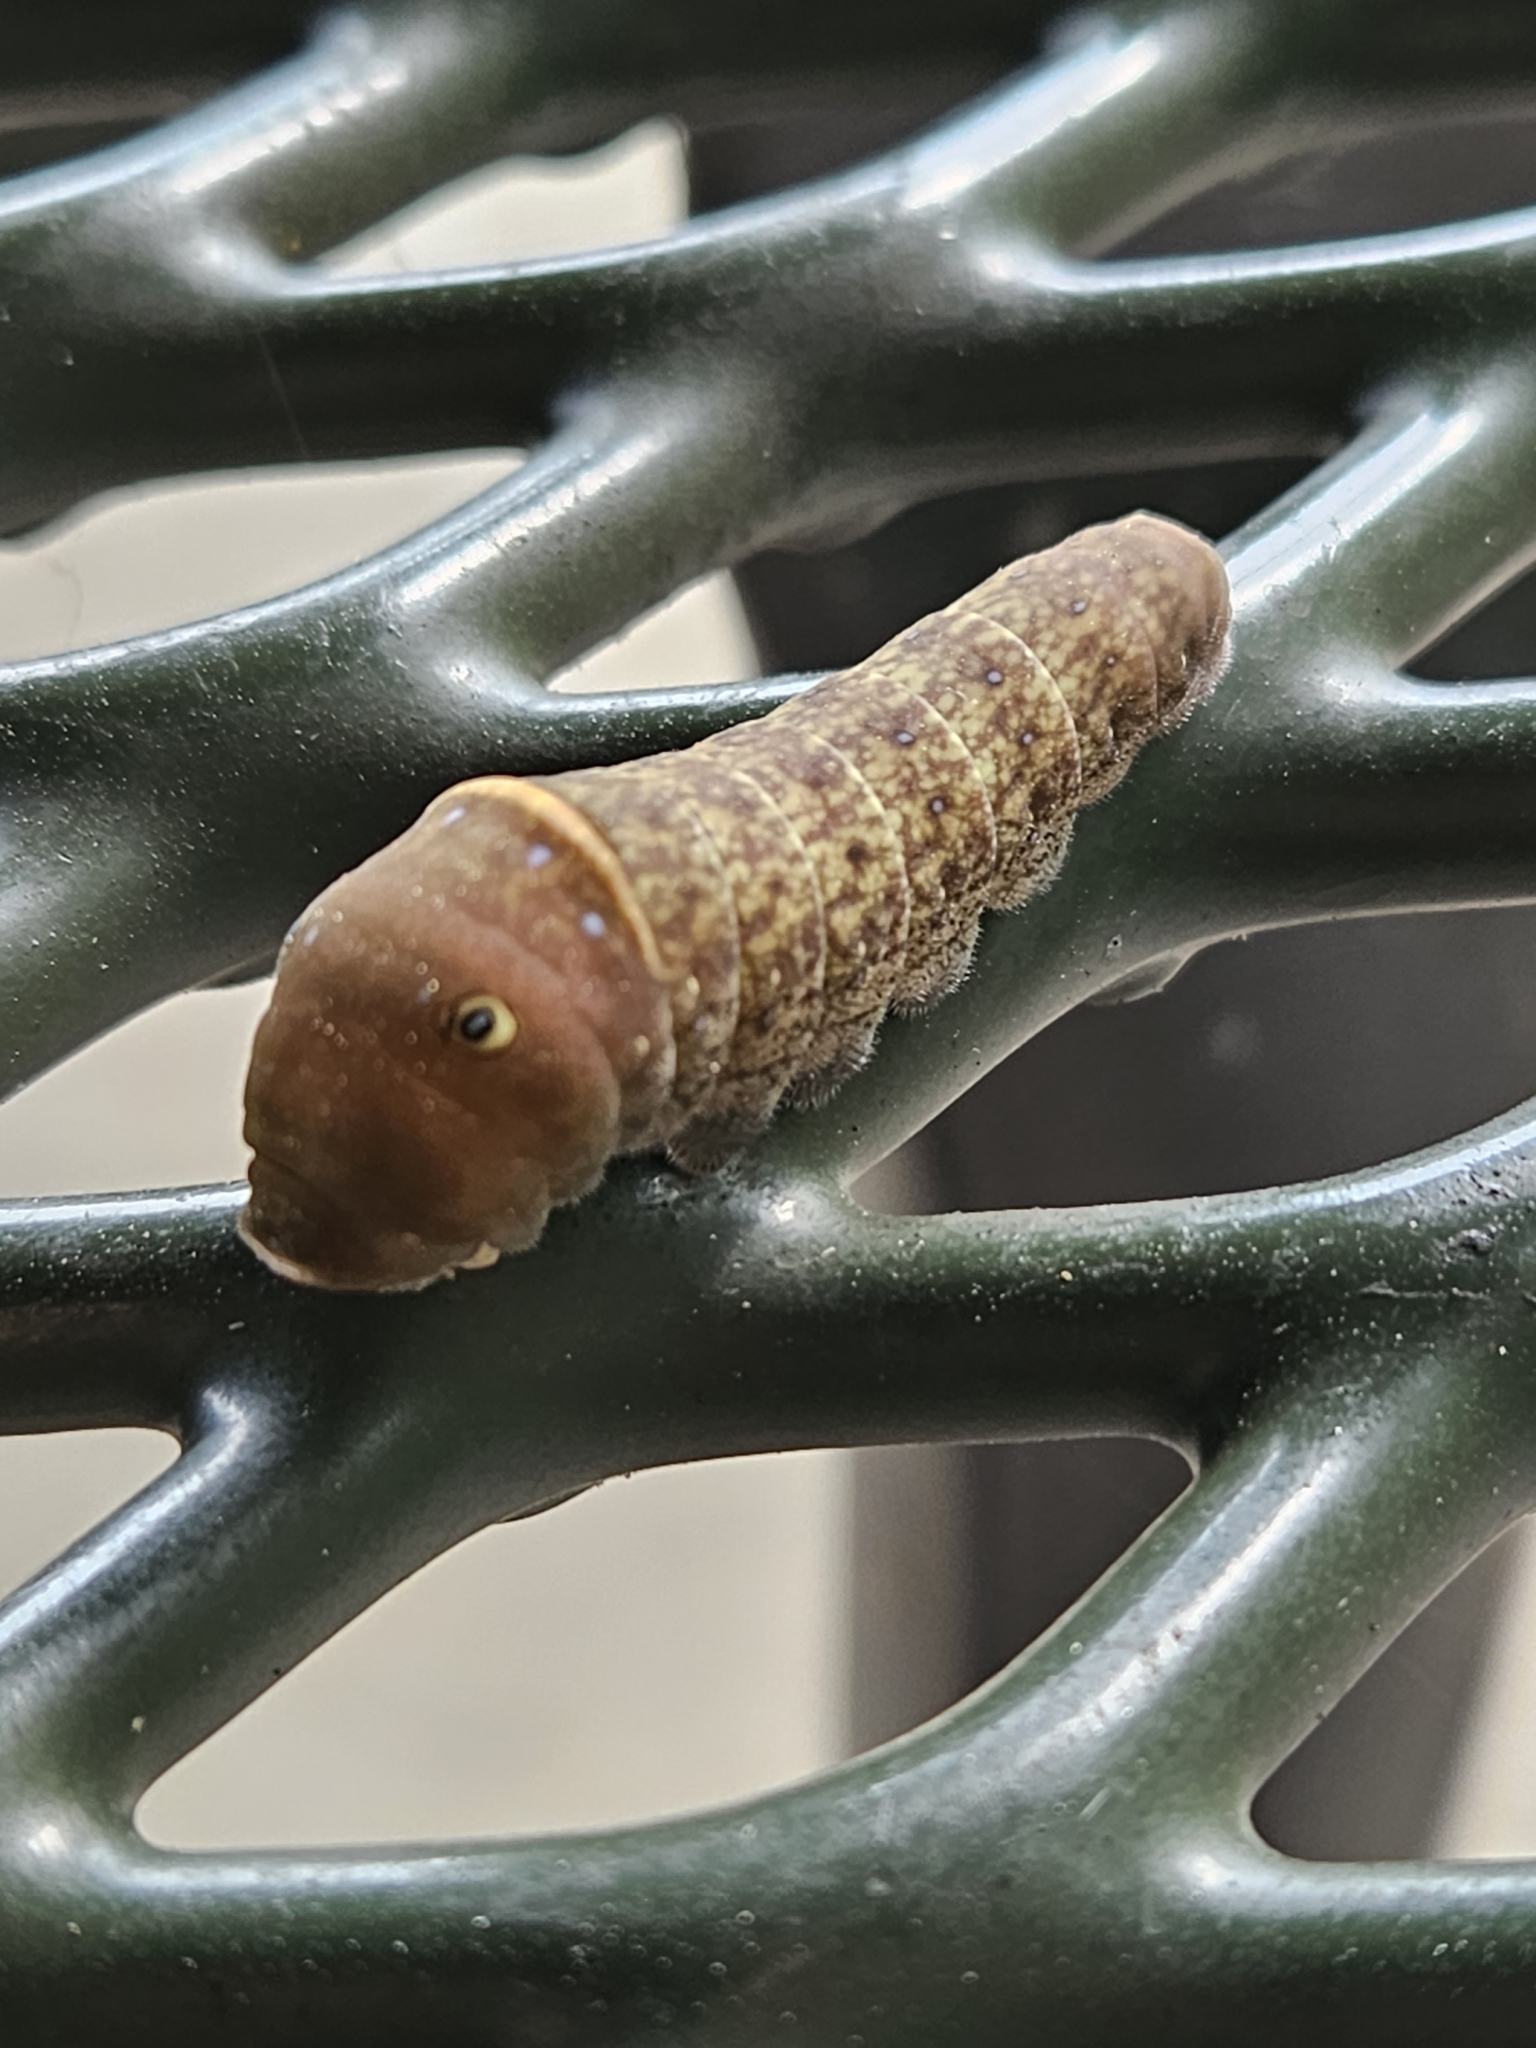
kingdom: Animalia
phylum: Arthropoda
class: Insecta
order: Lepidoptera
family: Papilionidae
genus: Papilio
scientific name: Papilio glaucus
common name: Tiger swallowtail
